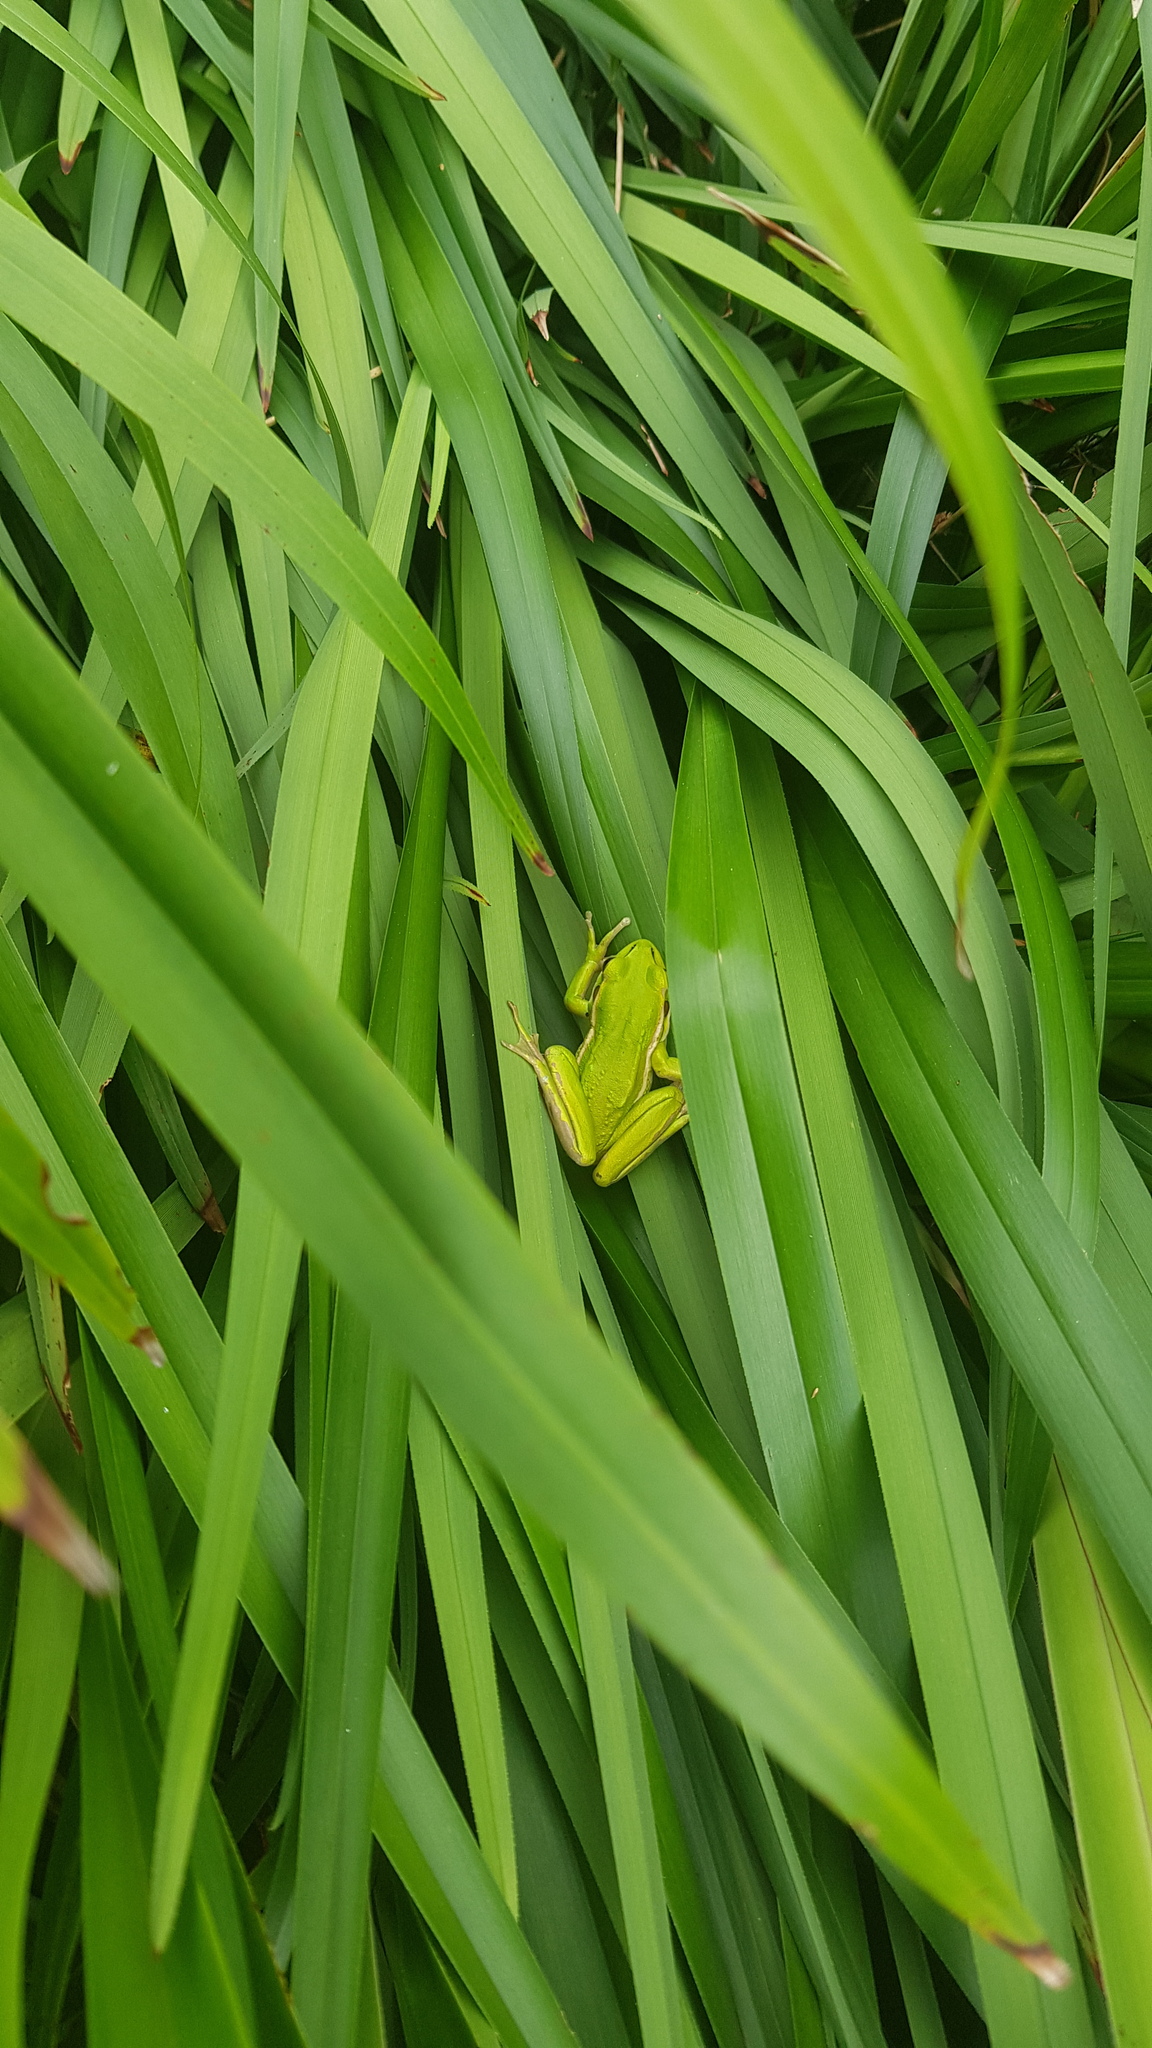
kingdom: Animalia
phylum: Chordata
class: Amphibia
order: Anura
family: Pelodryadidae
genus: Ranoidea
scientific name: Ranoidea aurea
